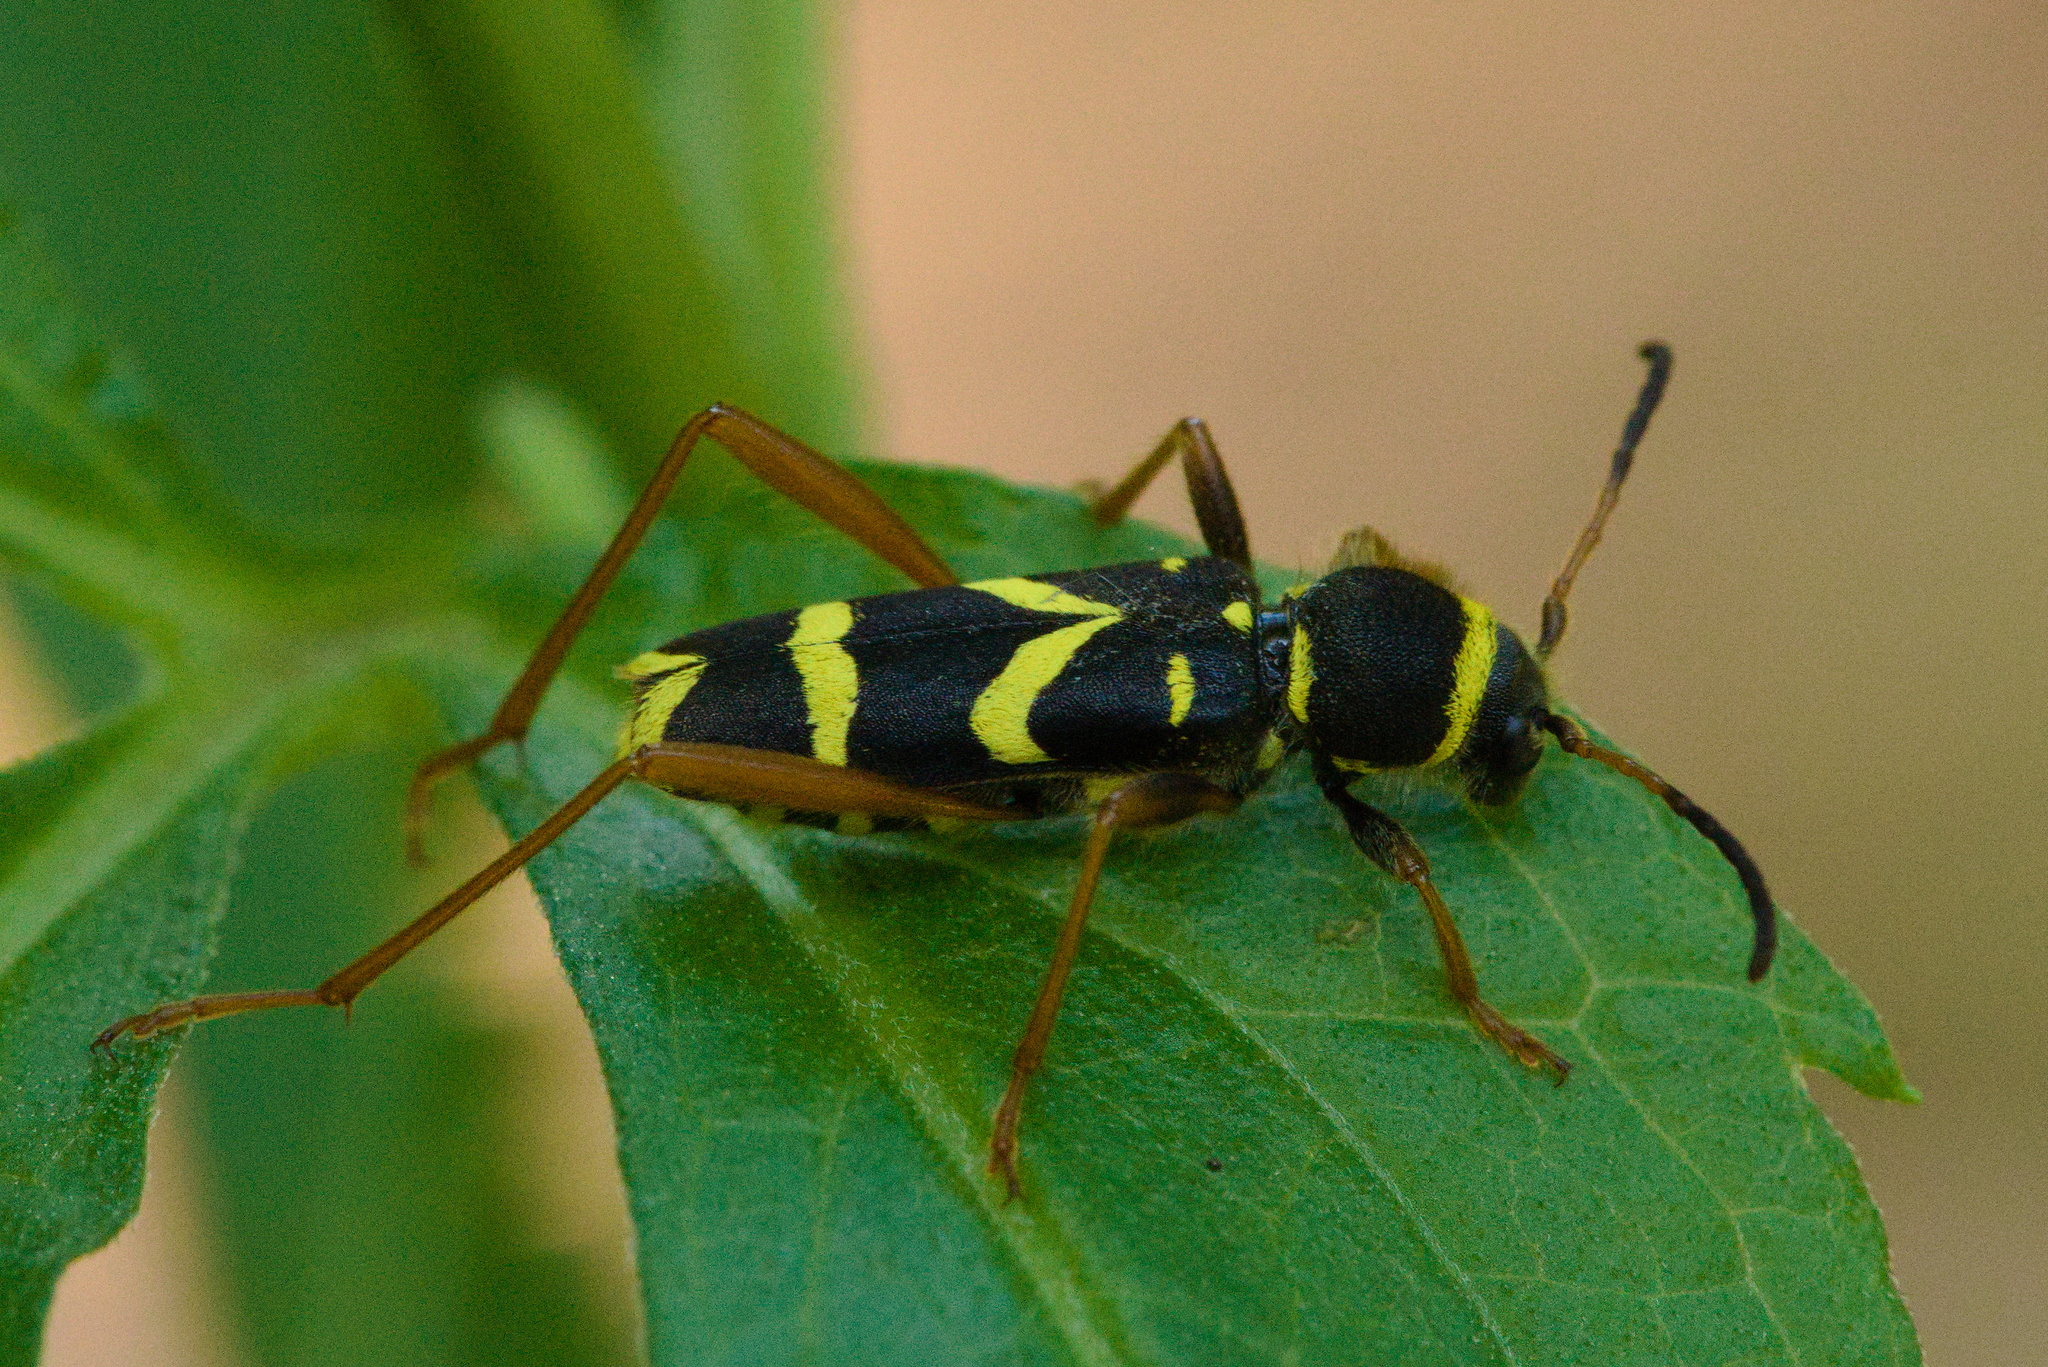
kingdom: Animalia
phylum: Arthropoda
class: Insecta
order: Coleoptera
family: Cerambycidae
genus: Clytus
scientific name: Clytus arietis
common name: Wasp beetle
